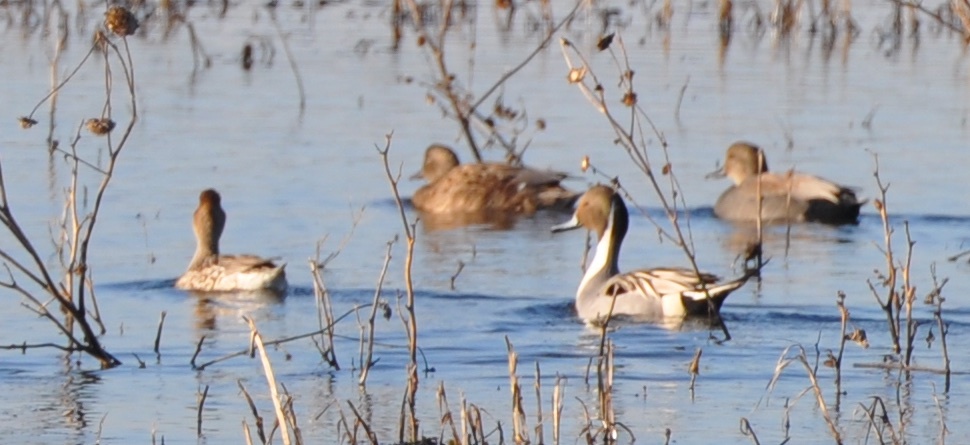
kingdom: Animalia
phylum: Chordata
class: Aves
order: Anseriformes
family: Anatidae
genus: Anas
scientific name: Anas acuta
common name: Northern pintail
